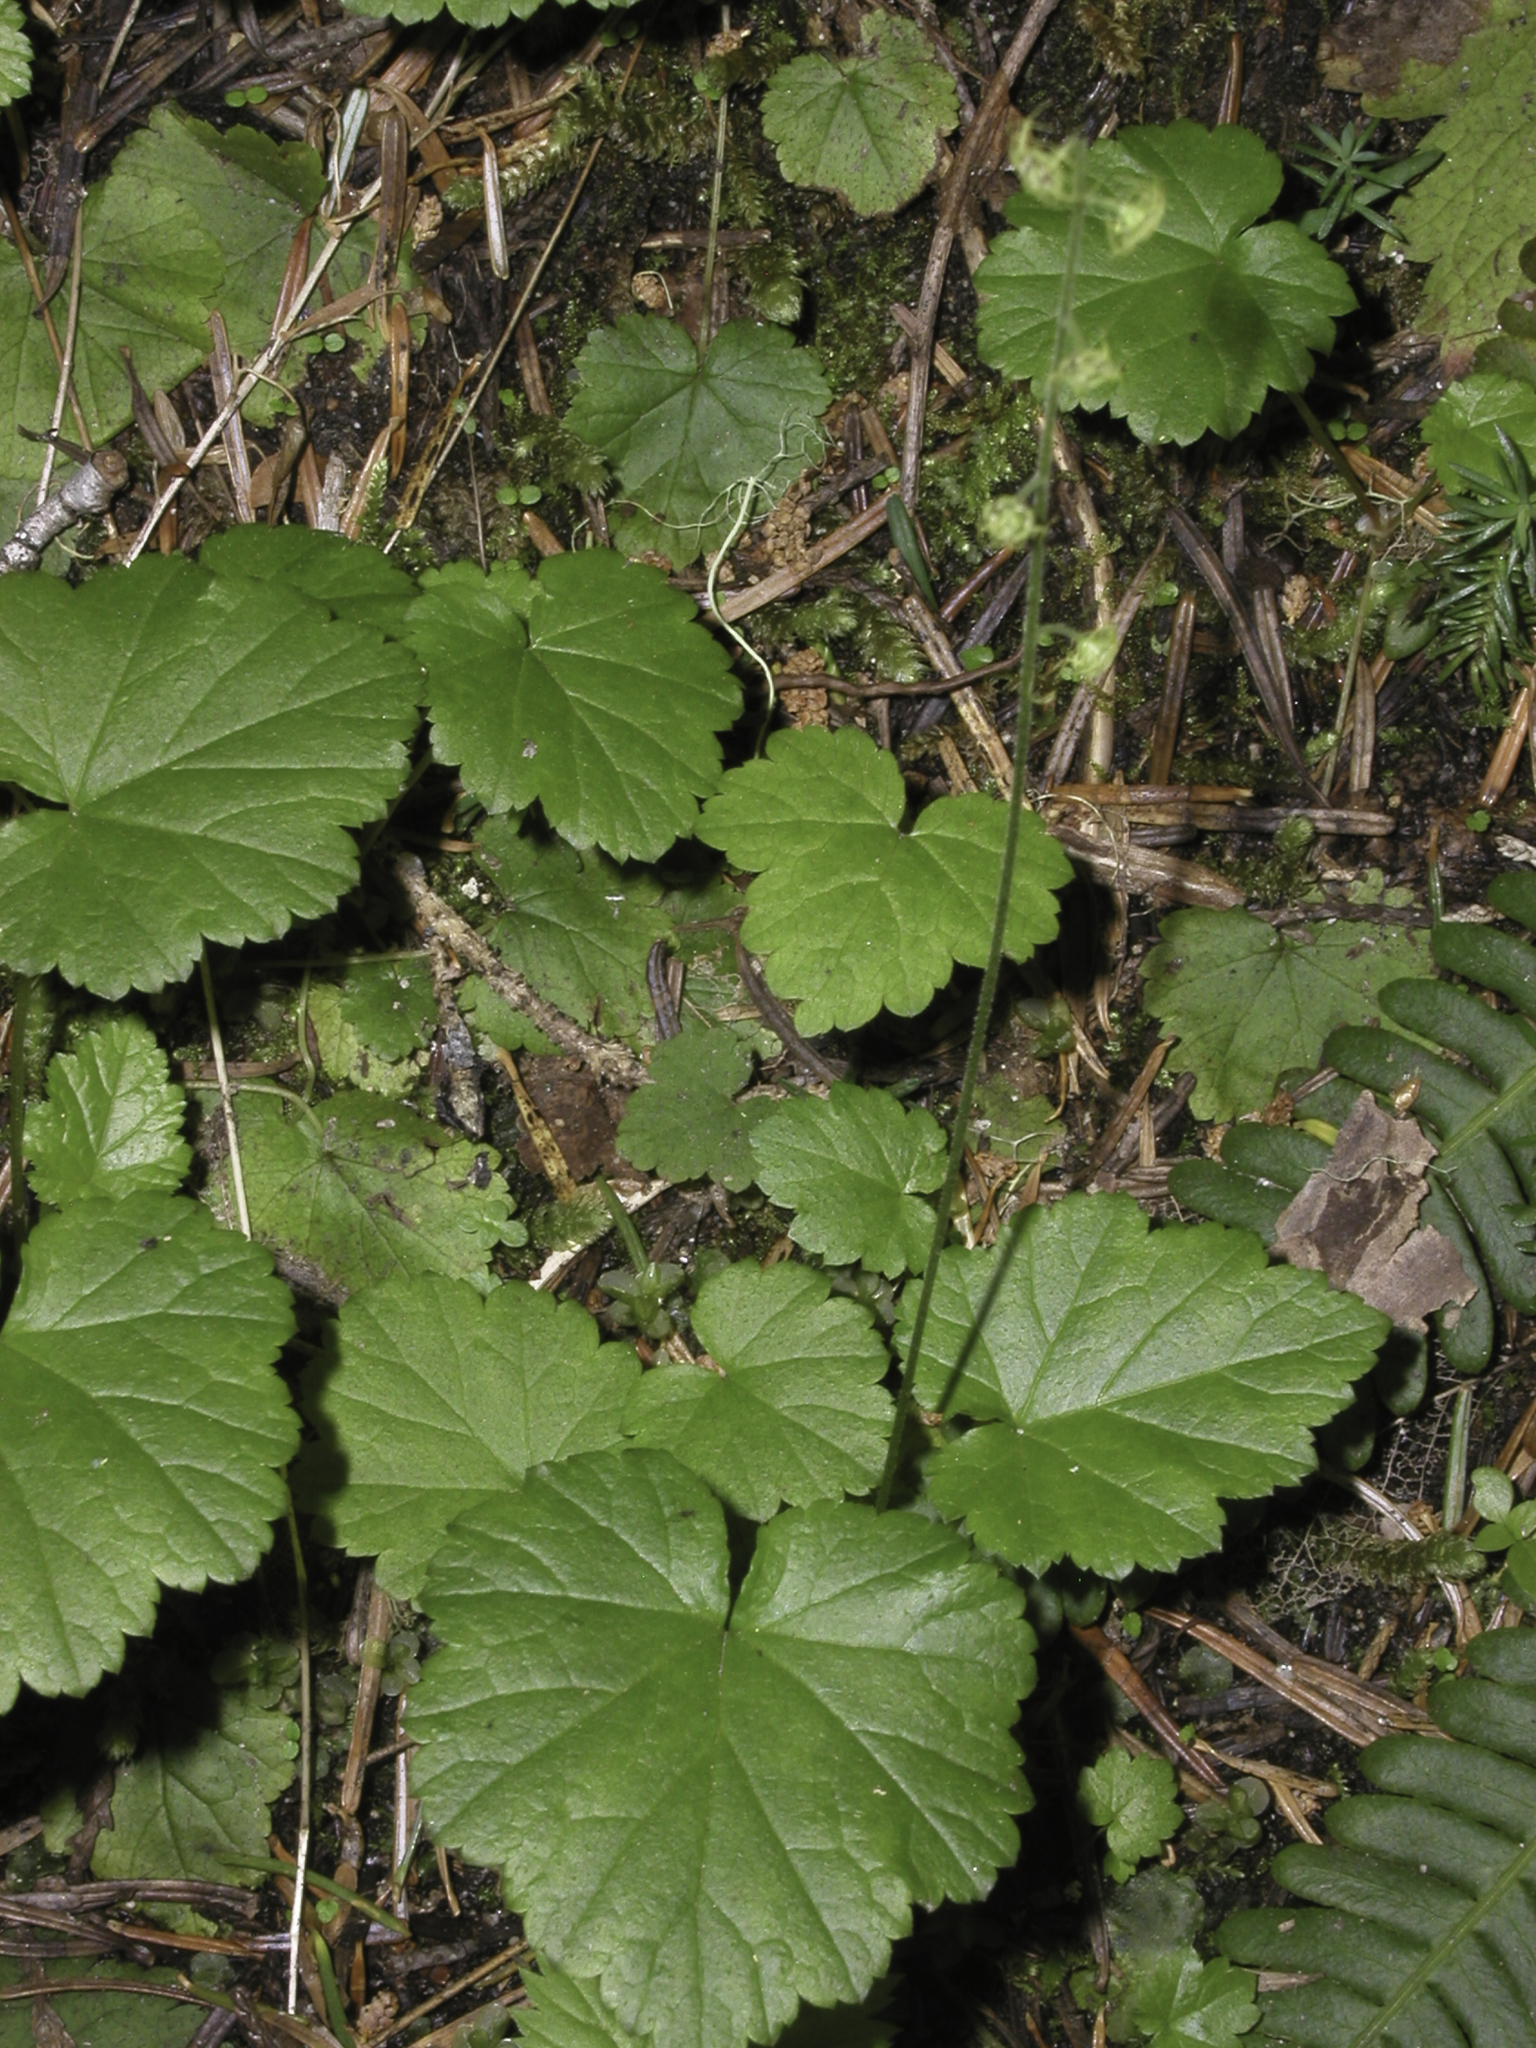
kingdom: Plantae
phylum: Tracheophyta
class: Magnoliopsida
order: Saxifragales
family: Saxifragaceae
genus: Brewerimitella
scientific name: Brewerimitella breweri
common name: Brewer's bishop's-cap
